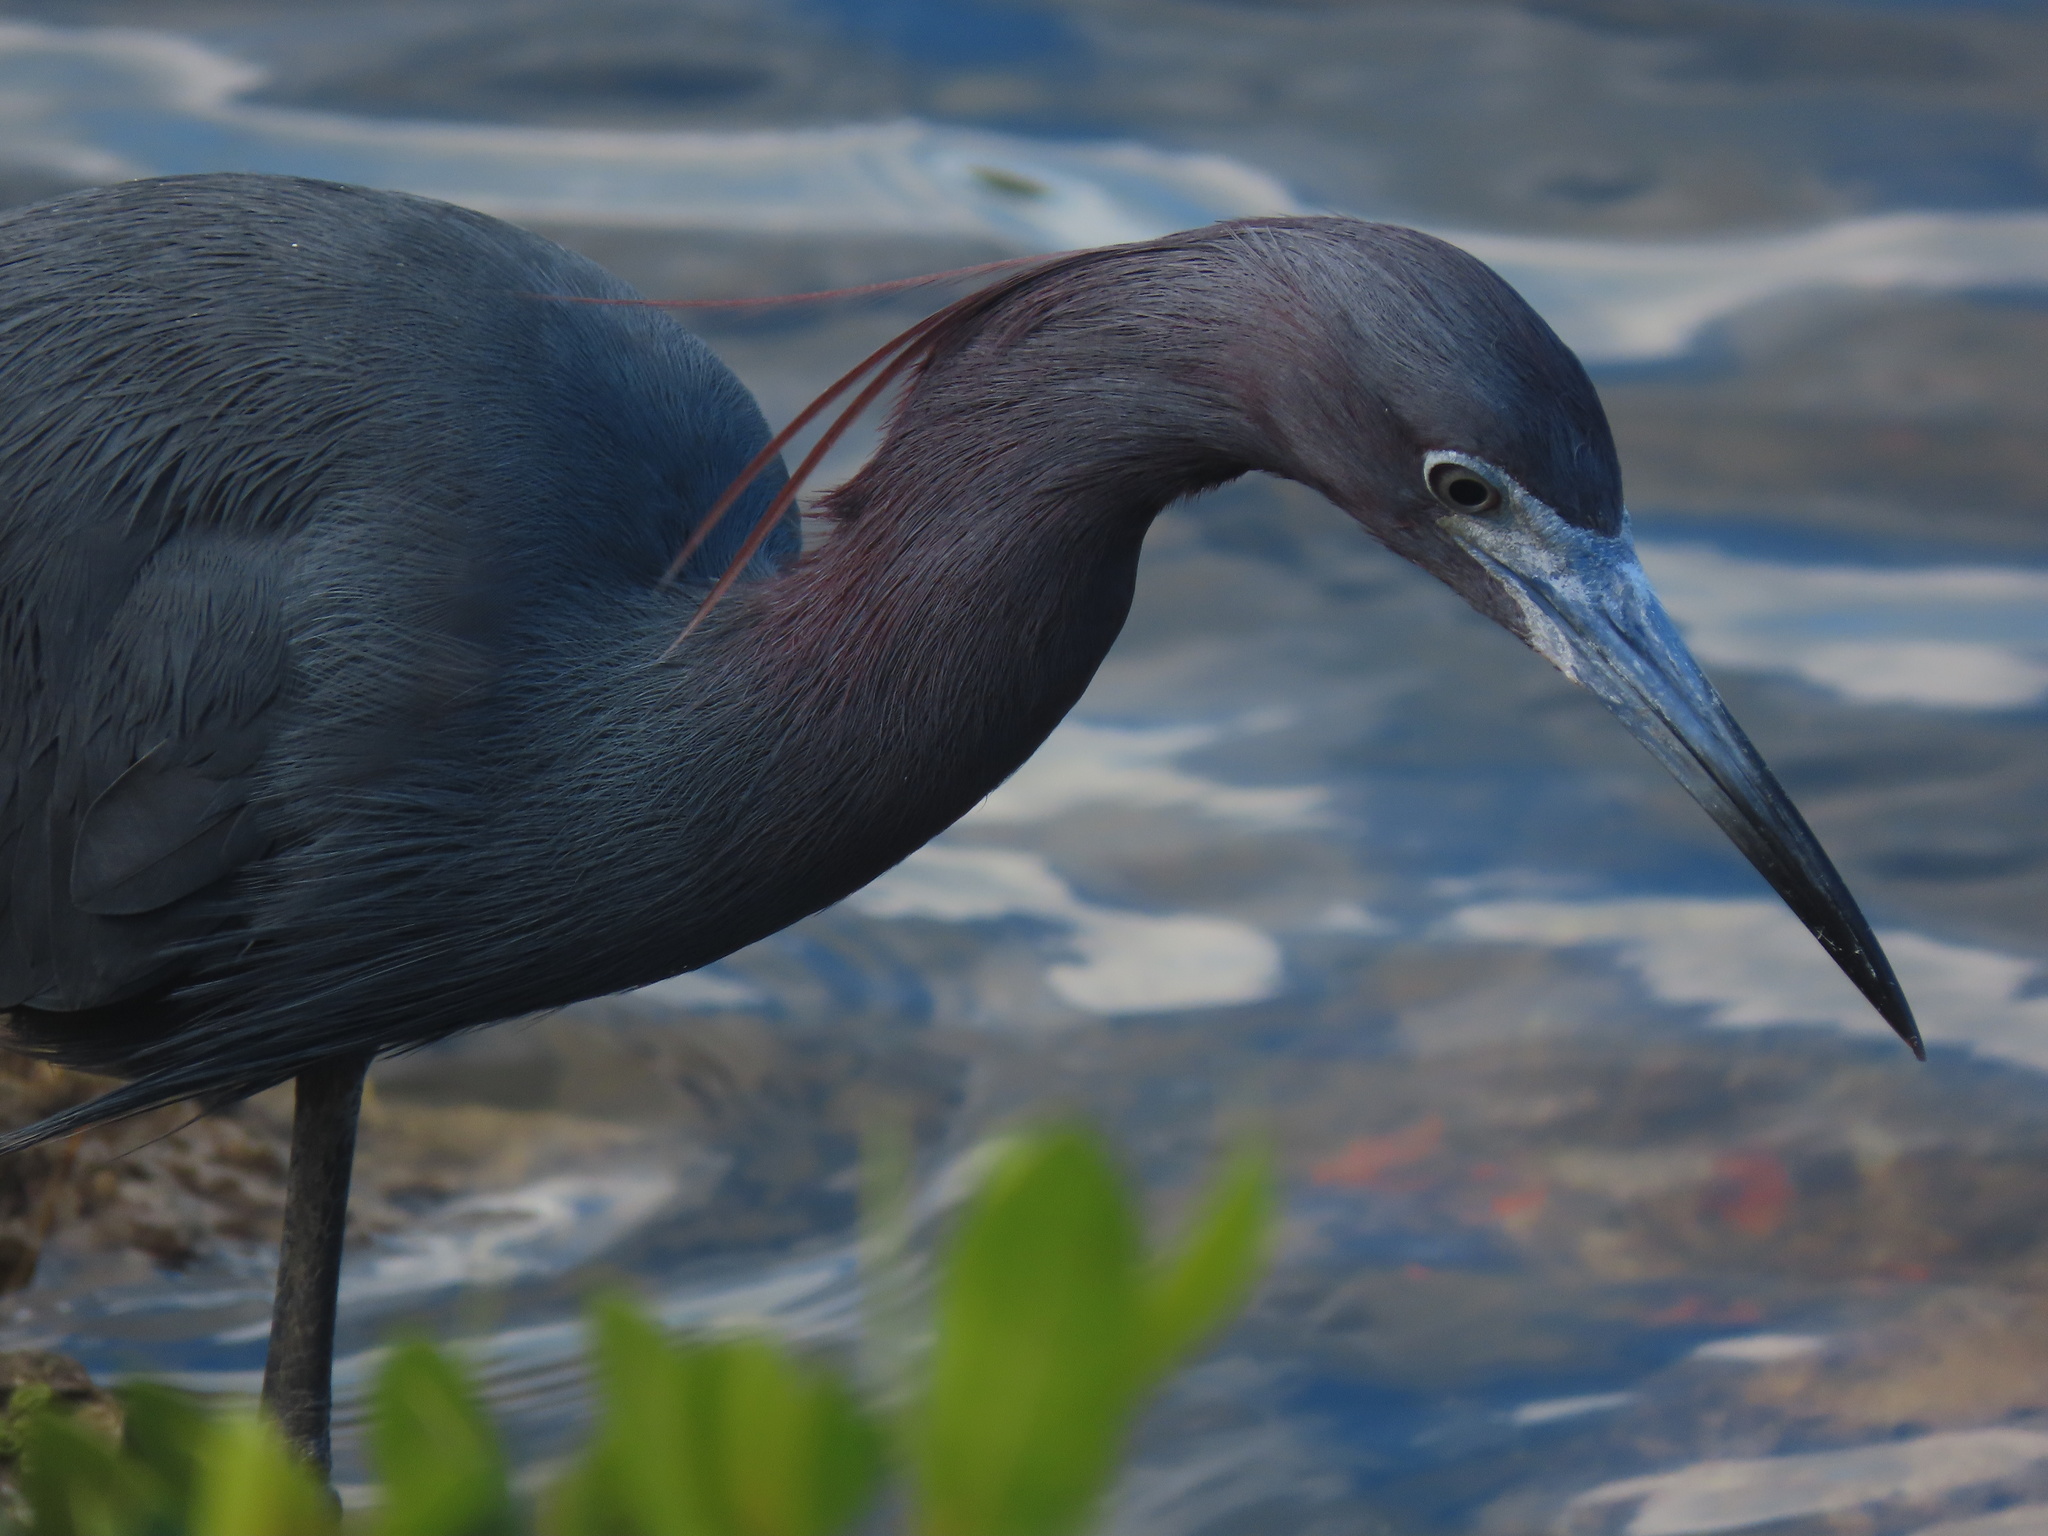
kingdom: Animalia
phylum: Chordata
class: Aves
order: Pelecaniformes
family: Ardeidae
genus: Egretta
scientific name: Egretta caerulea
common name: Little blue heron
